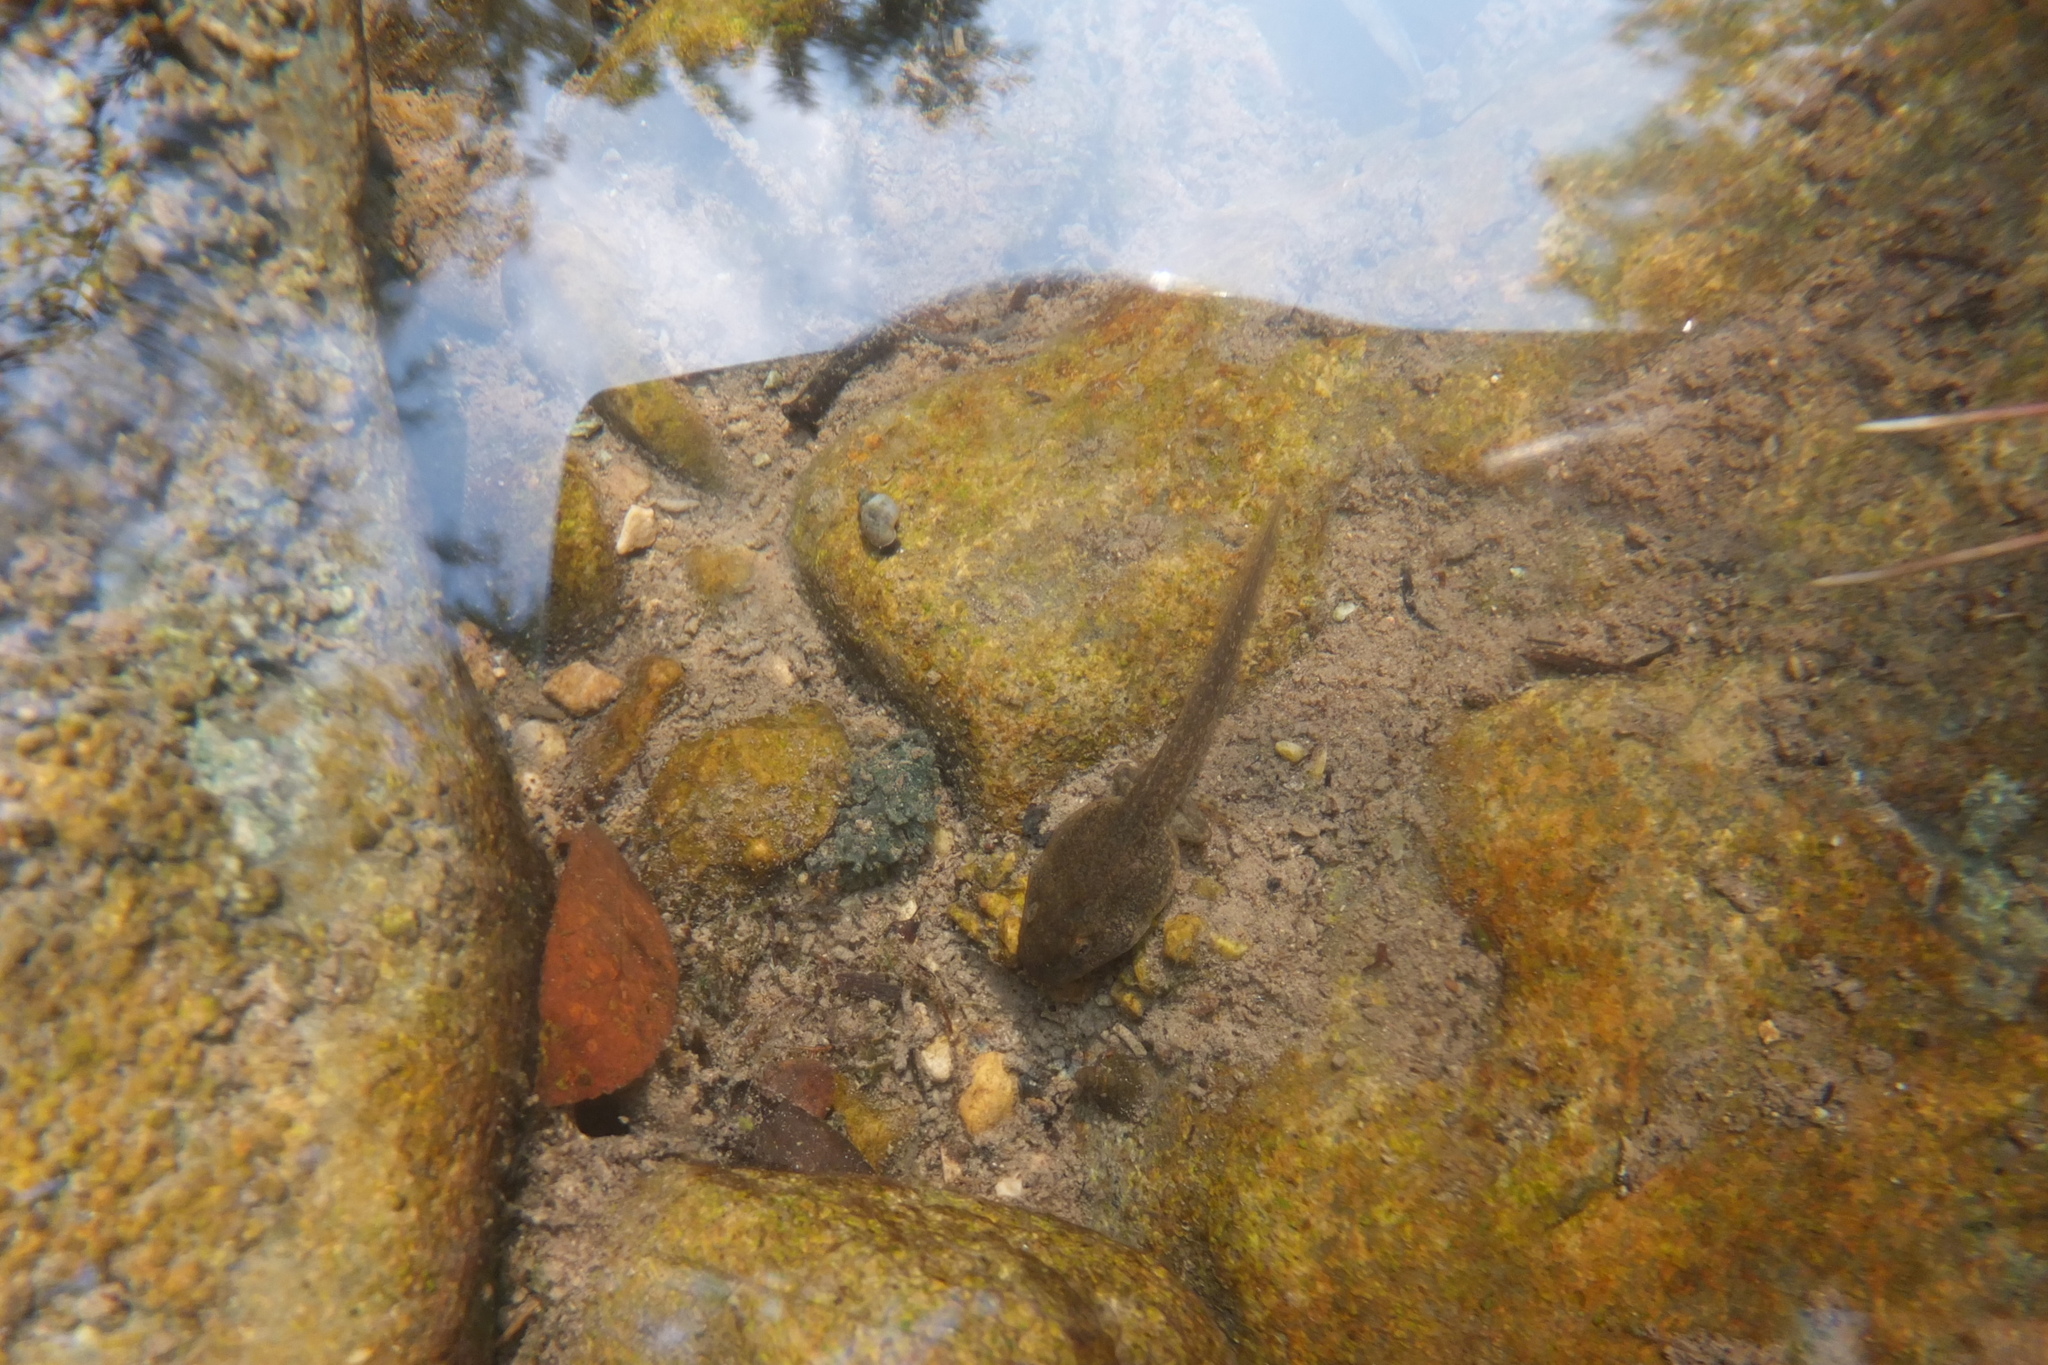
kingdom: Animalia
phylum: Chordata
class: Amphibia
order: Anura
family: Ranidae
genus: Rana
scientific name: Rana italica
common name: Italian stream frog
